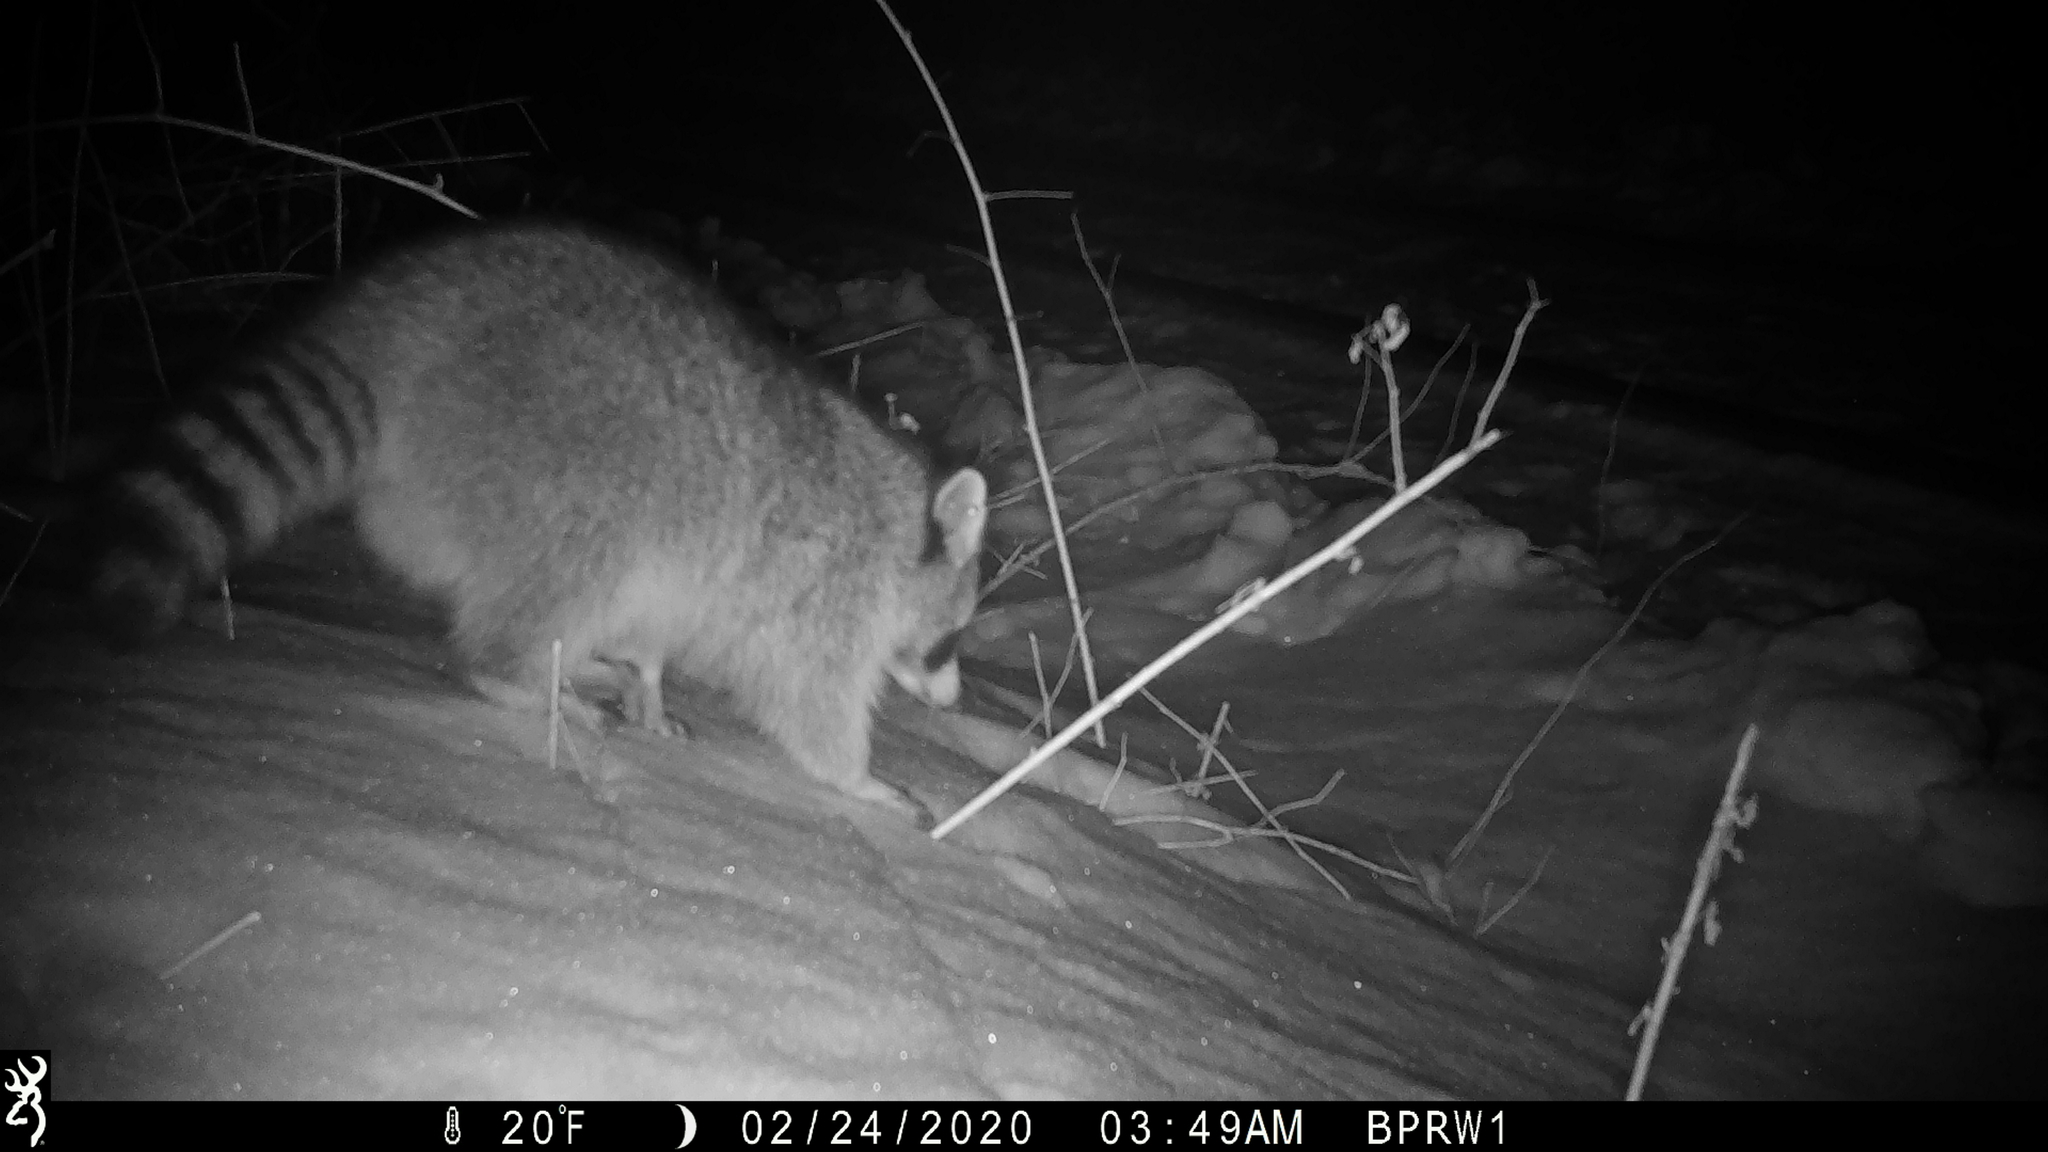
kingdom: Animalia
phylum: Chordata
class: Mammalia
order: Carnivora
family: Procyonidae
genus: Procyon
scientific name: Procyon lotor
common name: Raccoon
